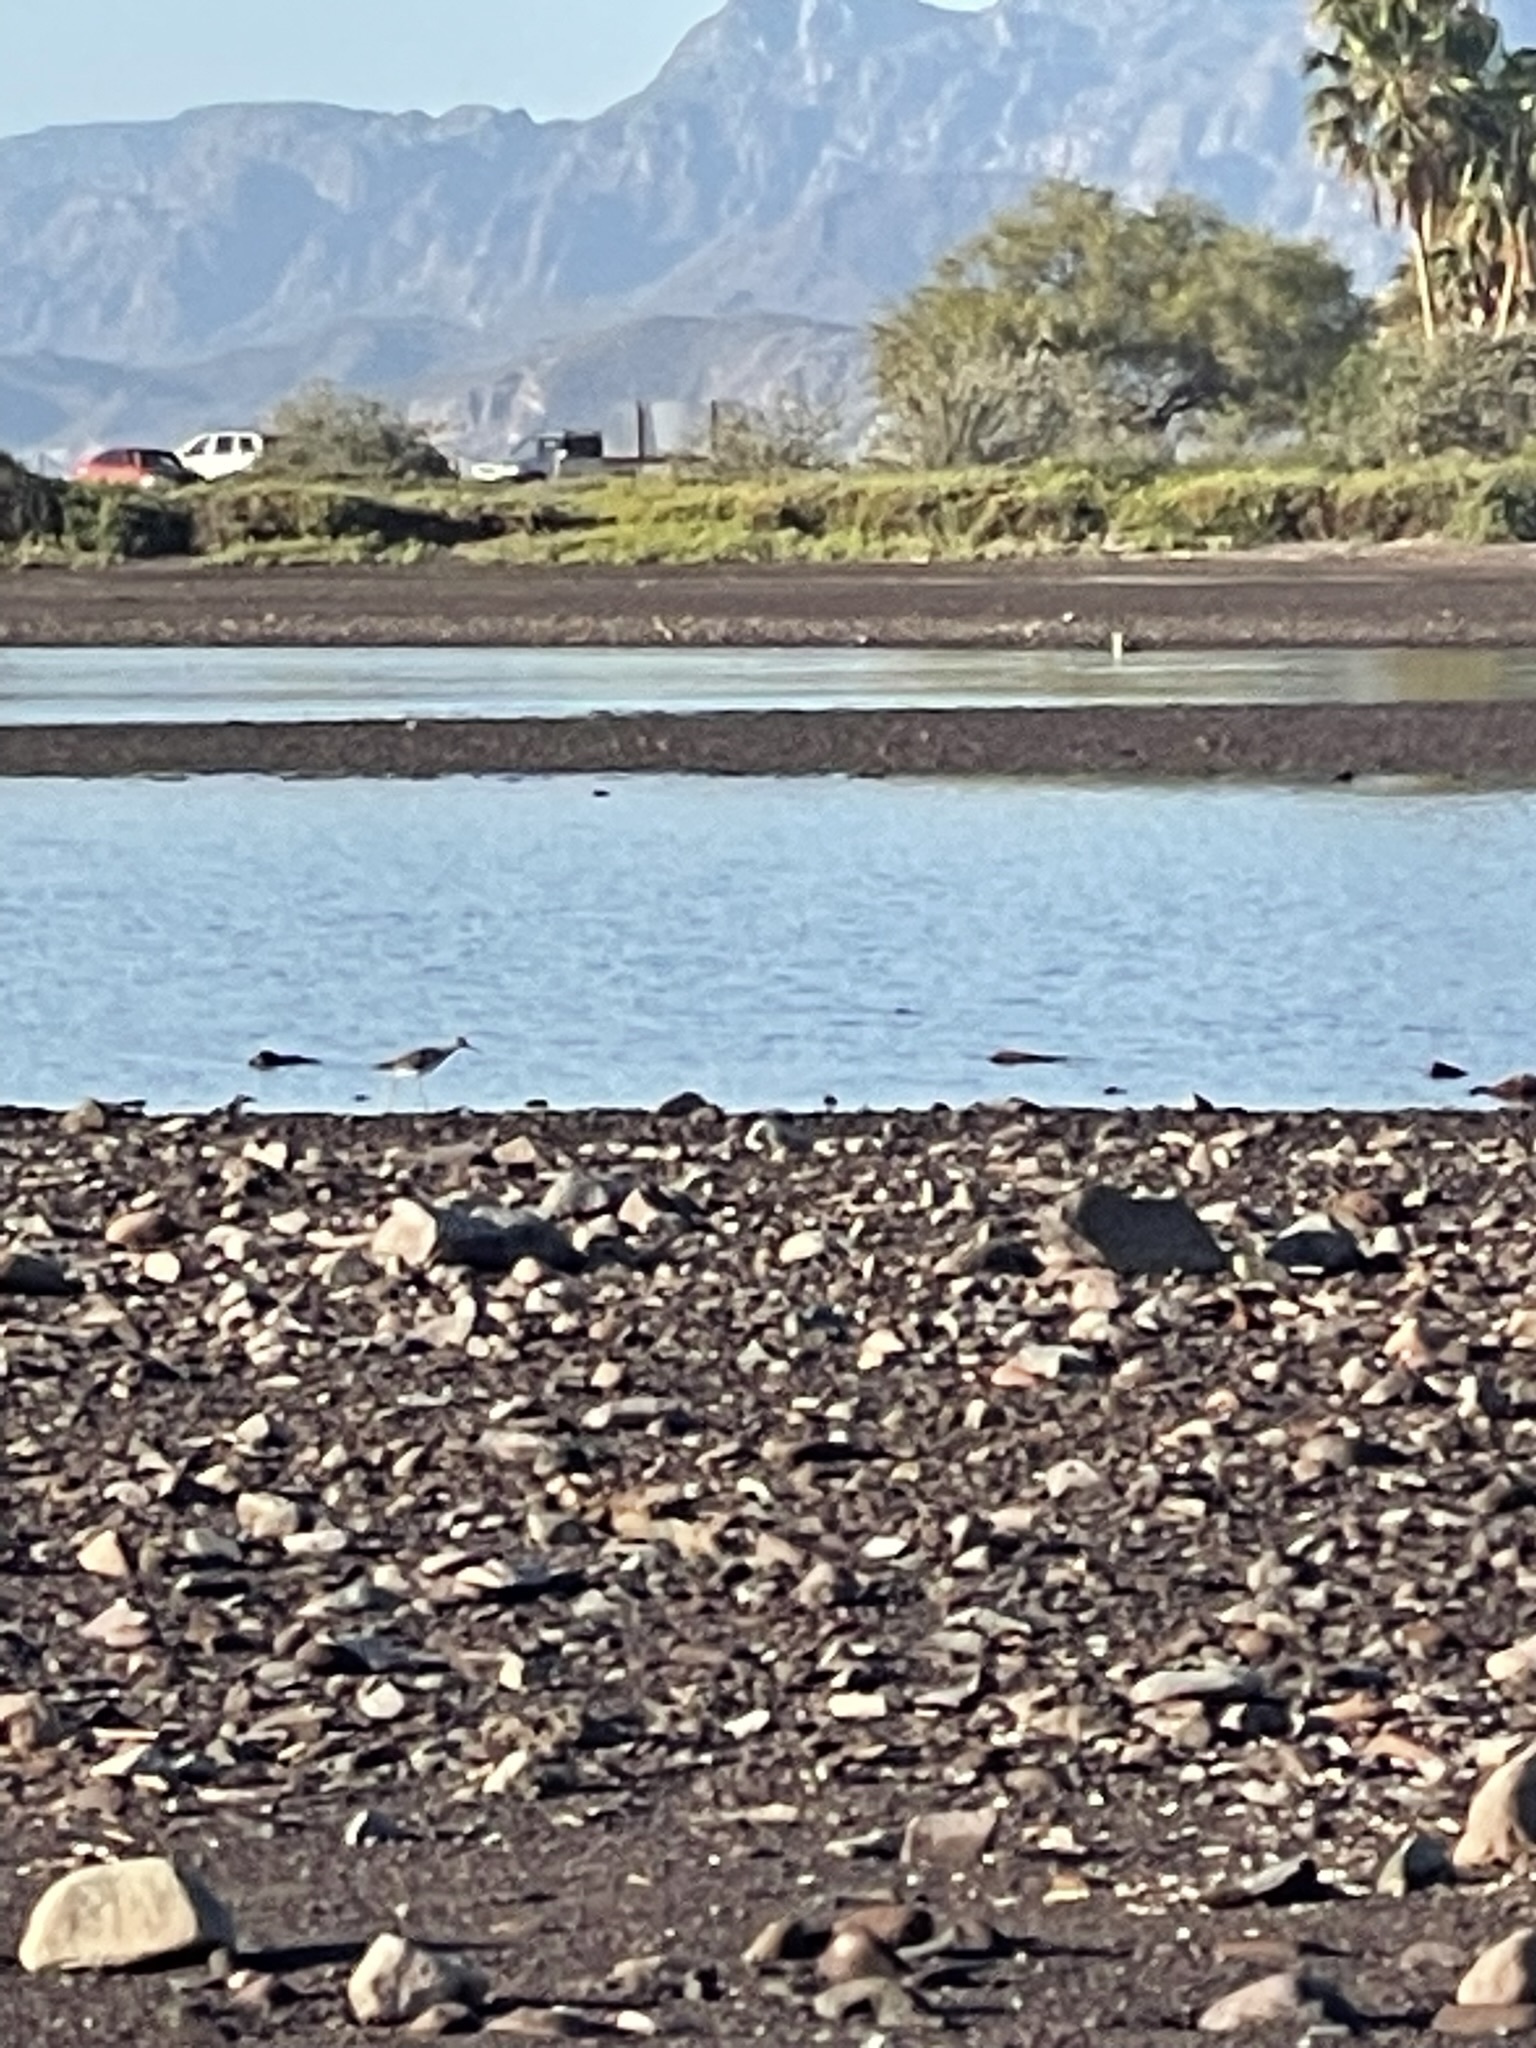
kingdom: Animalia
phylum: Chordata
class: Aves
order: Charadriiformes
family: Scolopacidae
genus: Tringa
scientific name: Tringa semipalmata
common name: Willet
